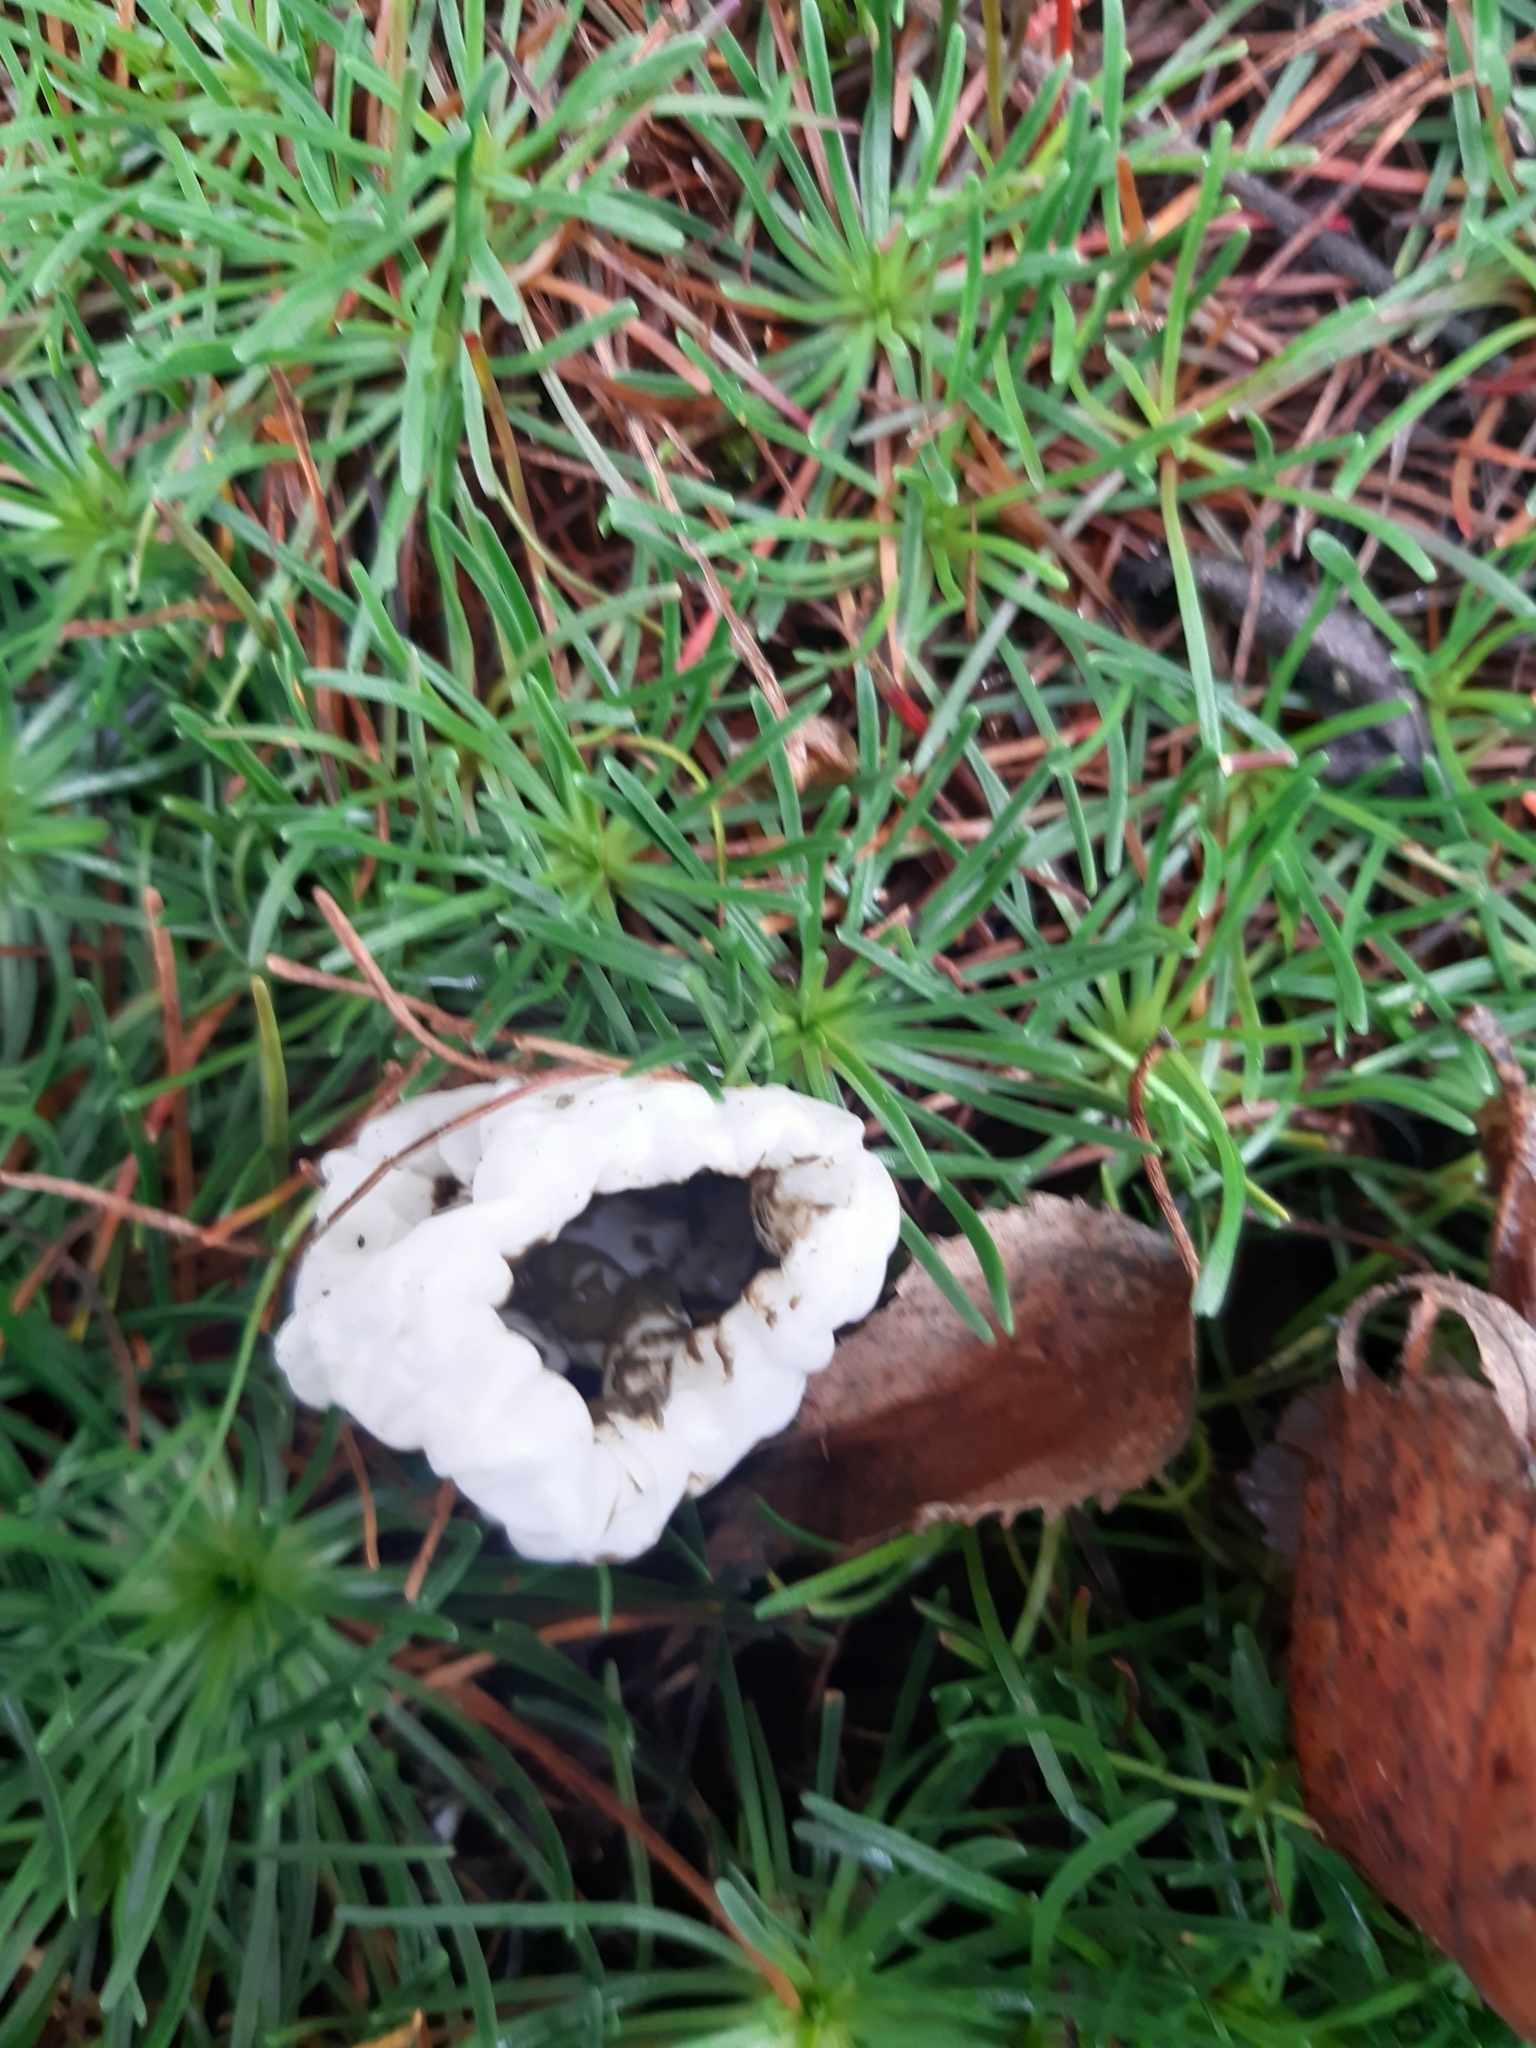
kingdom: Fungi
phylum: Basidiomycota
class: Agaricomycetes
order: Phallales
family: Phallaceae
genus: Ileodictyon
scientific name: Ileodictyon cibarium
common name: Basket fungus
